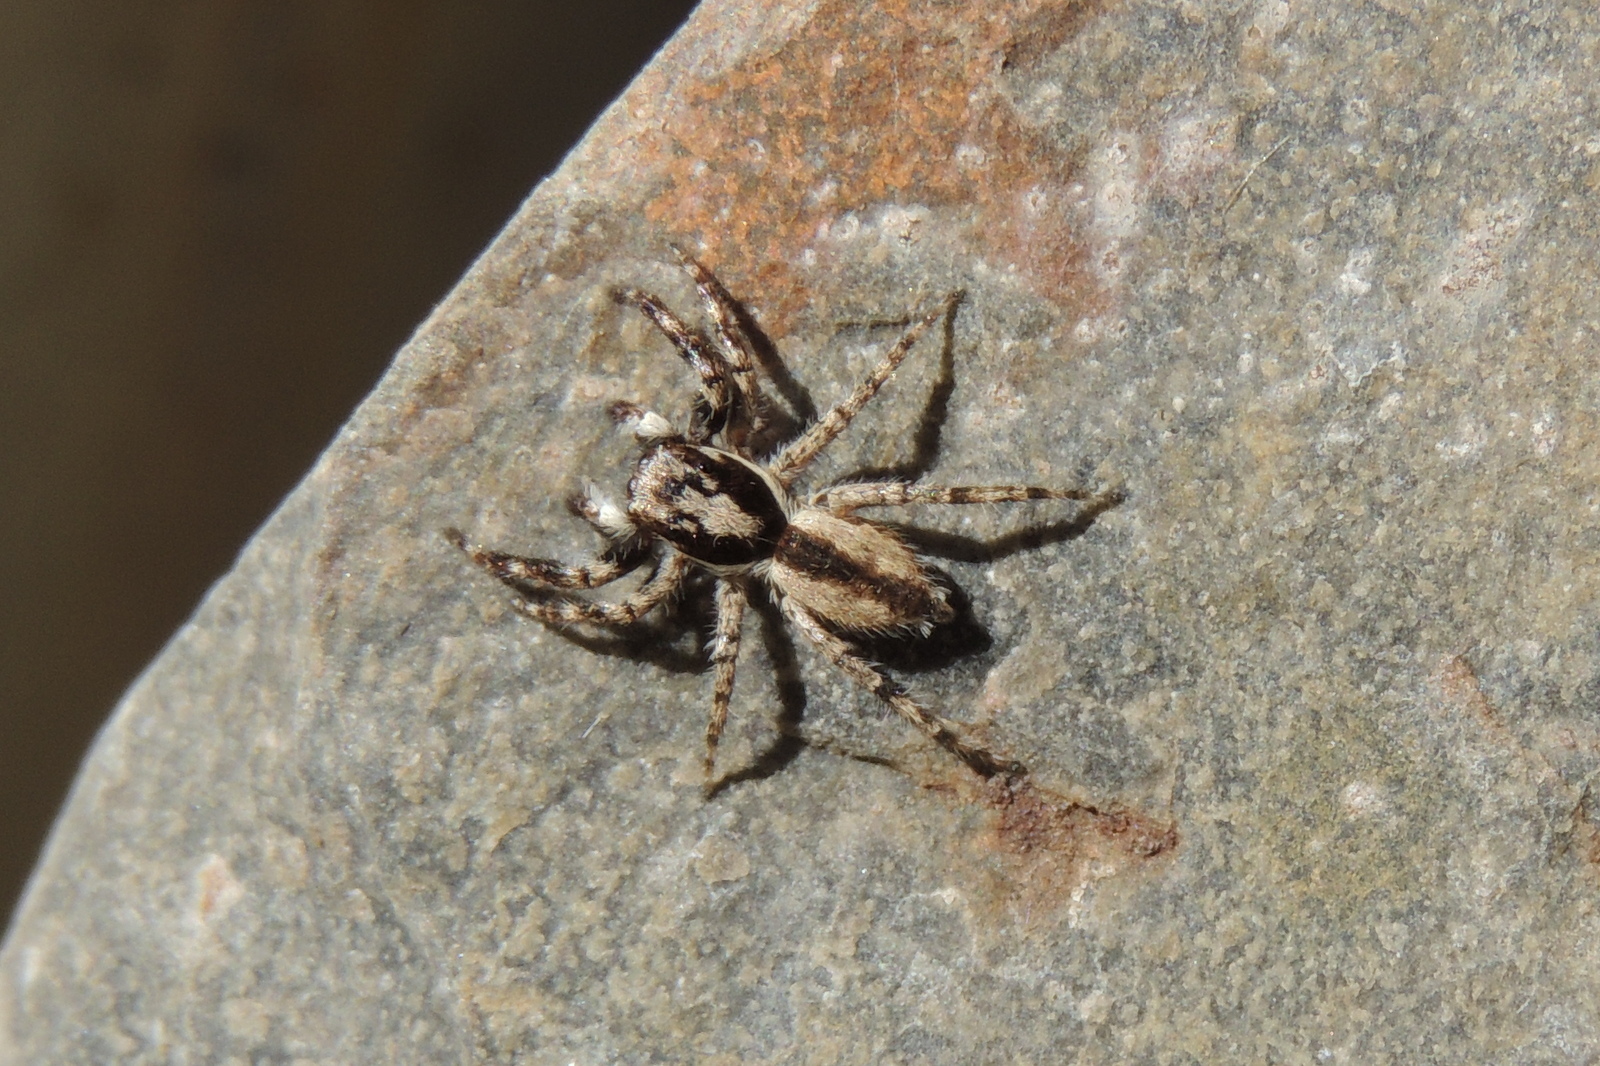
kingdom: Animalia
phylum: Arthropoda
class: Arachnida
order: Araneae
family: Salticidae
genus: Menemerus
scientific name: Menemerus bivittatus
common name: Gray wall jumper
